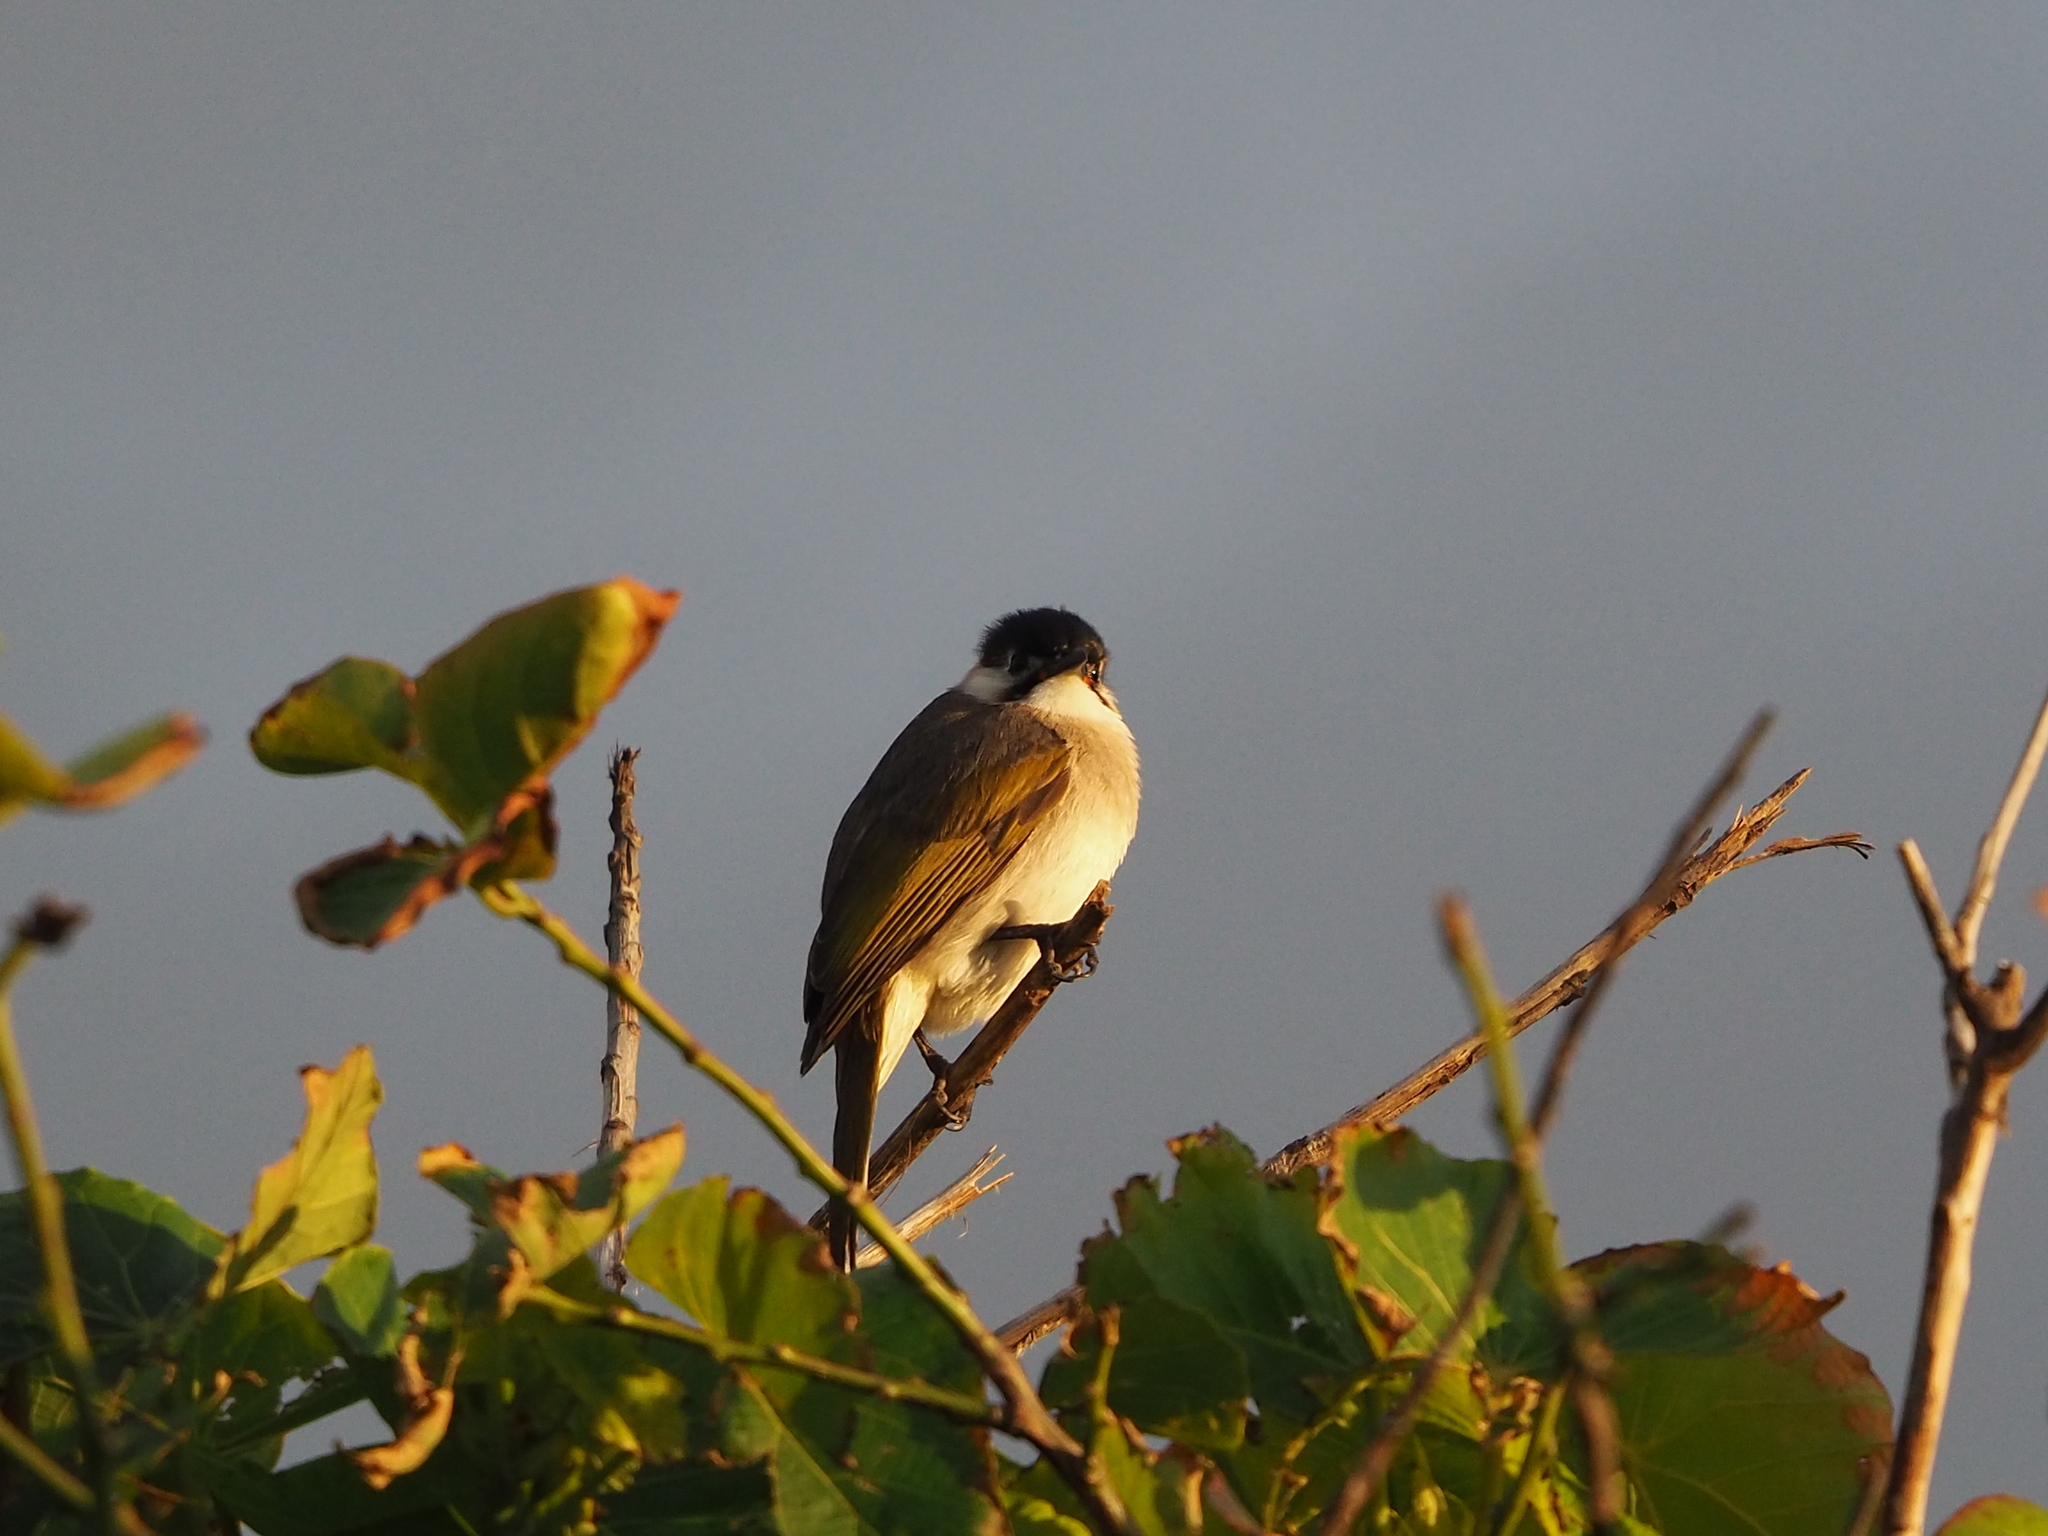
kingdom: Animalia
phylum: Chordata
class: Aves
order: Passeriformes
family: Pycnonotidae
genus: Pycnonotus
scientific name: Pycnonotus taivanus
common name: Styan's bulbul
